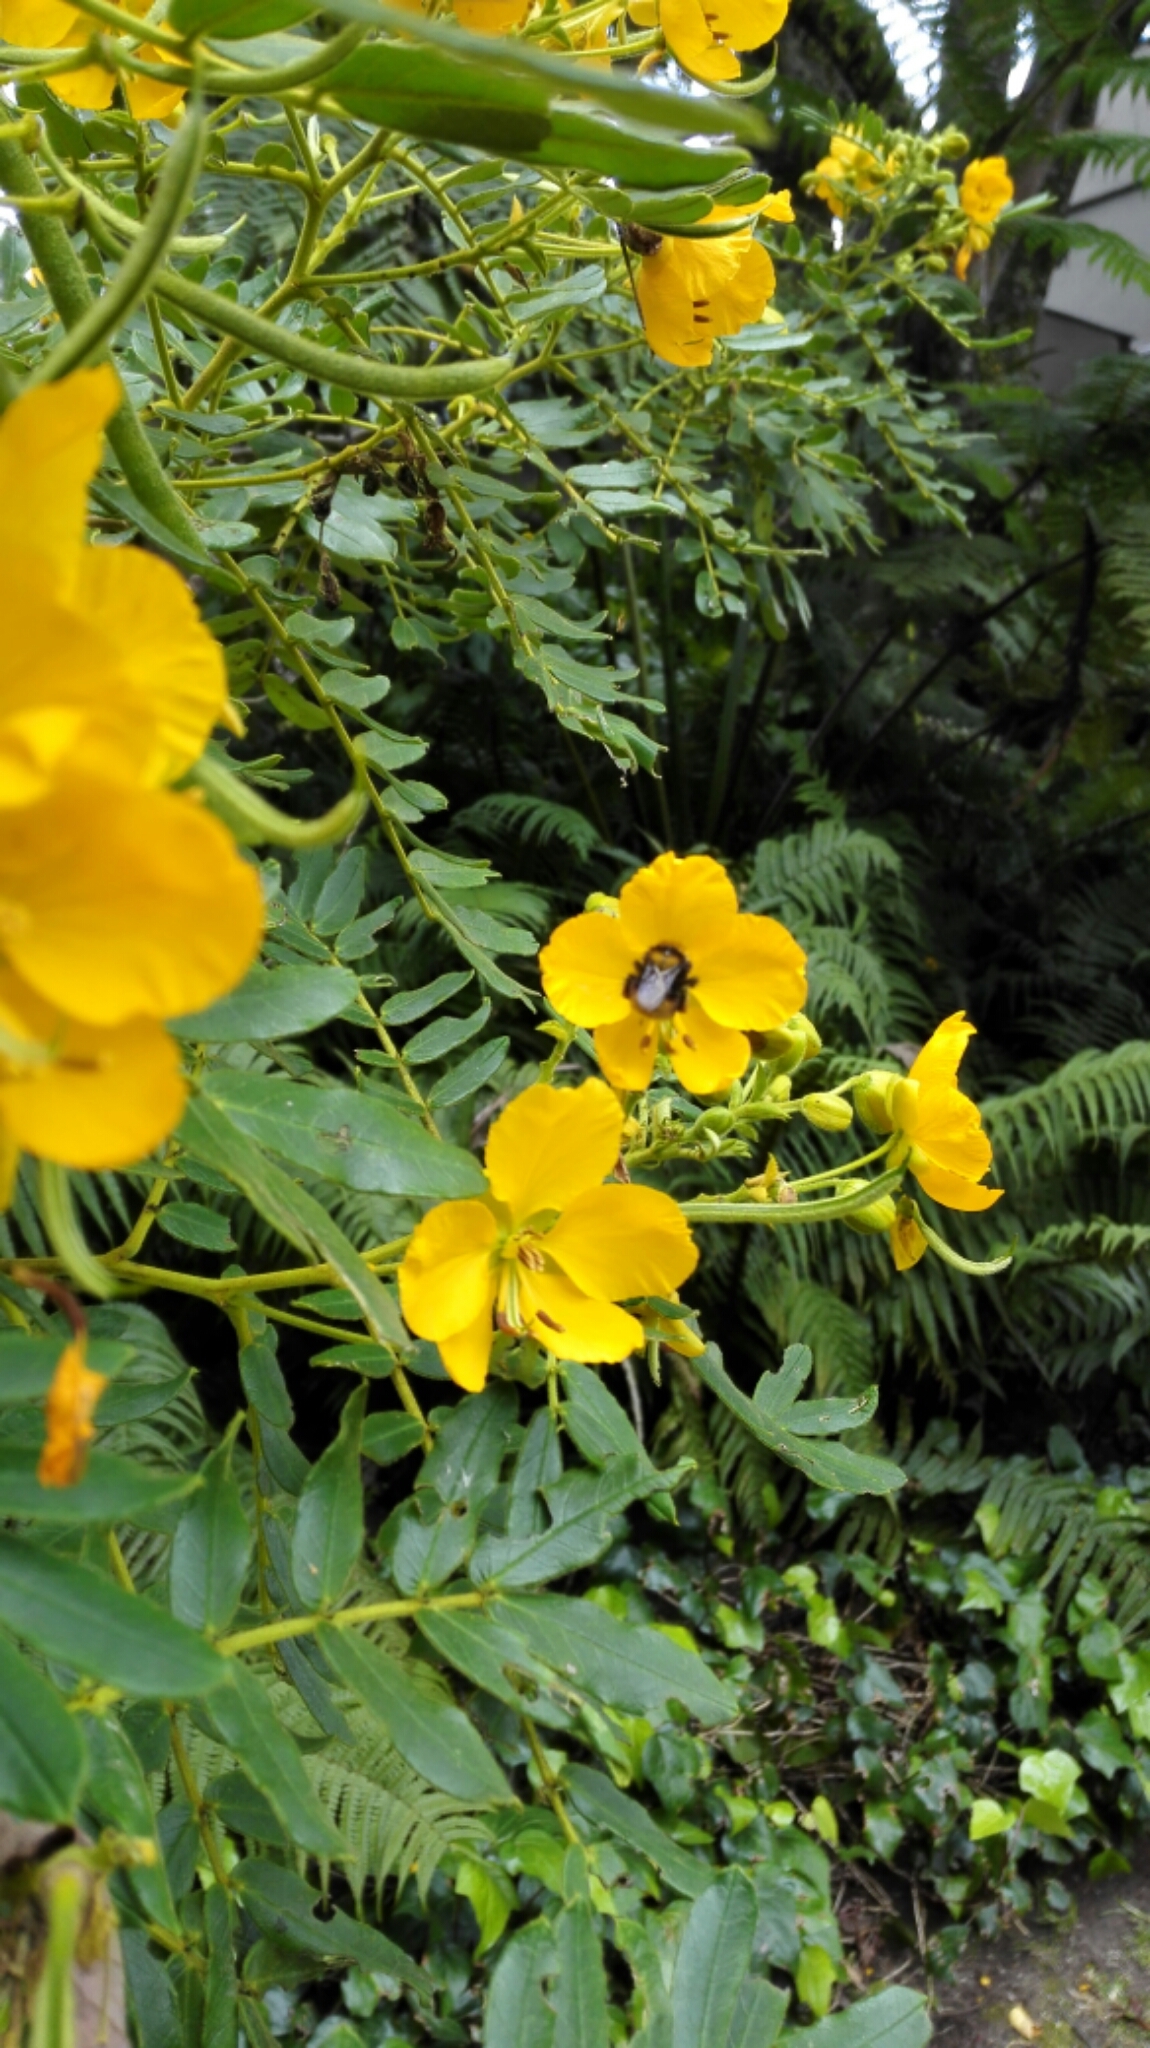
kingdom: Animalia
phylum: Arthropoda
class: Insecta
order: Hymenoptera
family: Apidae
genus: Bombus
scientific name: Bombus hortulanus
